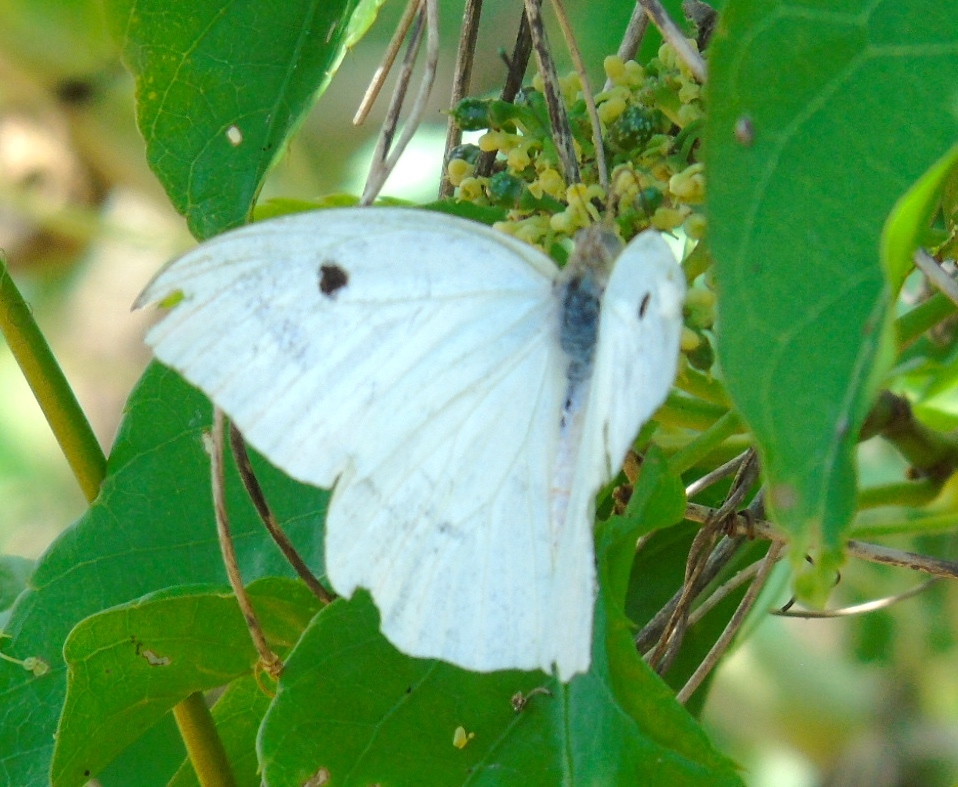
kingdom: Animalia
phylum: Arthropoda
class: Insecta
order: Lepidoptera
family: Pieridae
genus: Ganyra
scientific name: Ganyra josephina
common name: Giant white
